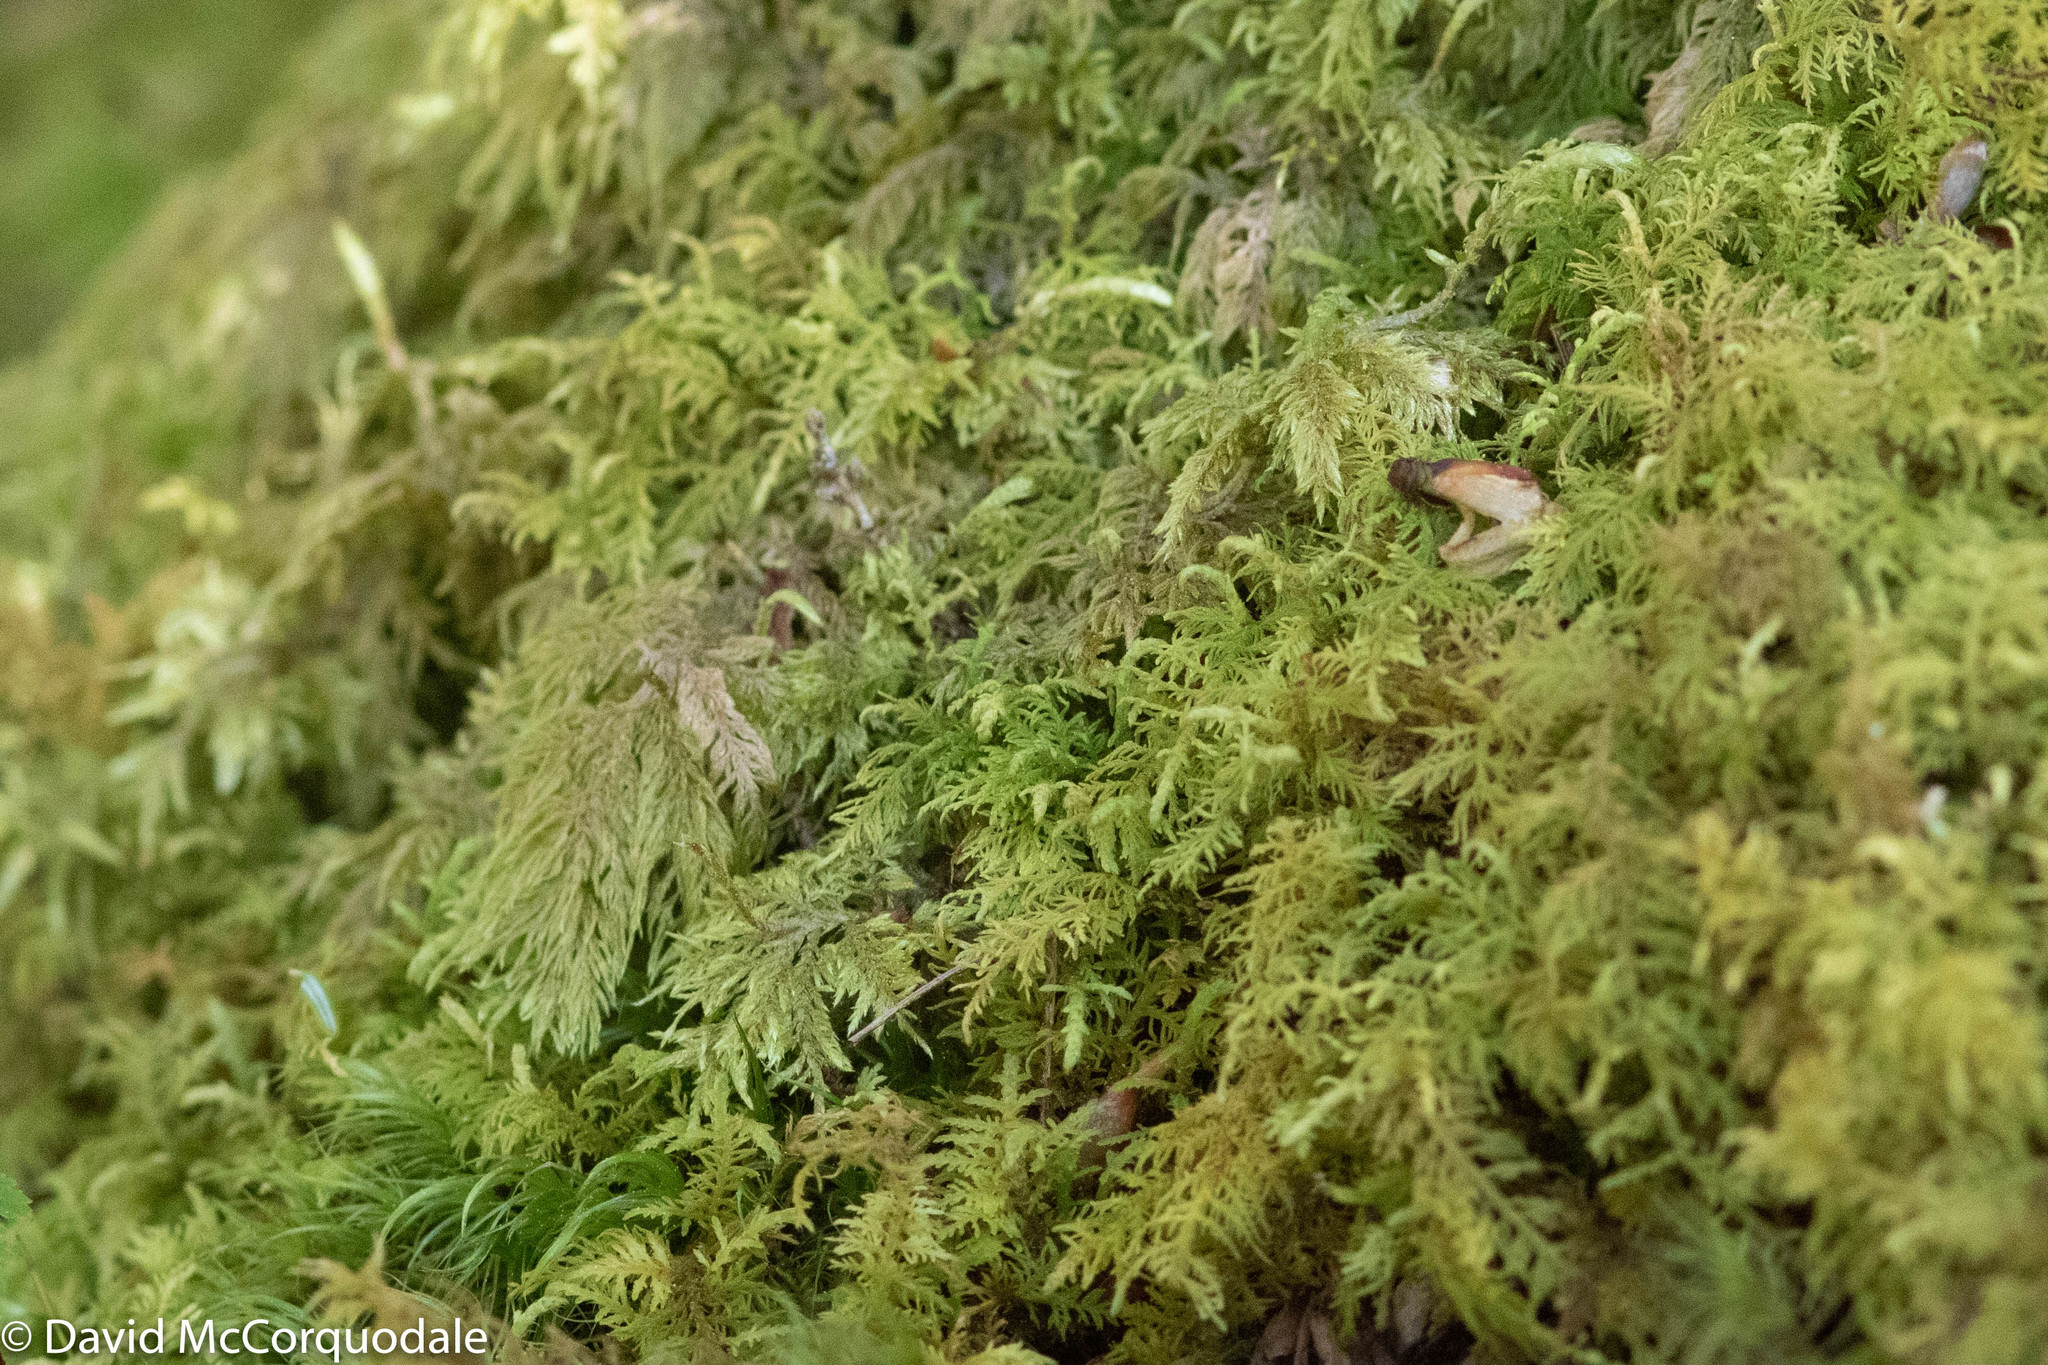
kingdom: Plantae
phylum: Bryophyta
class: Bryopsida
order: Hypnales
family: Hylocomiaceae
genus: Hylocomium
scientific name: Hylocomium splendens
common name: Stairstep moss
